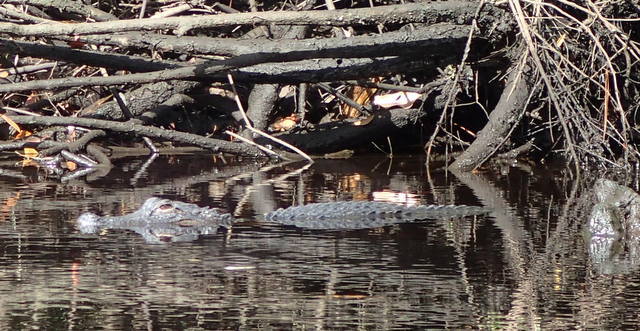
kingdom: Animalia
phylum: Chordata
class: Crocodylia
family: Alligatoridae
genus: Alligator
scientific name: Alligator mississippiensis
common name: American alligator
